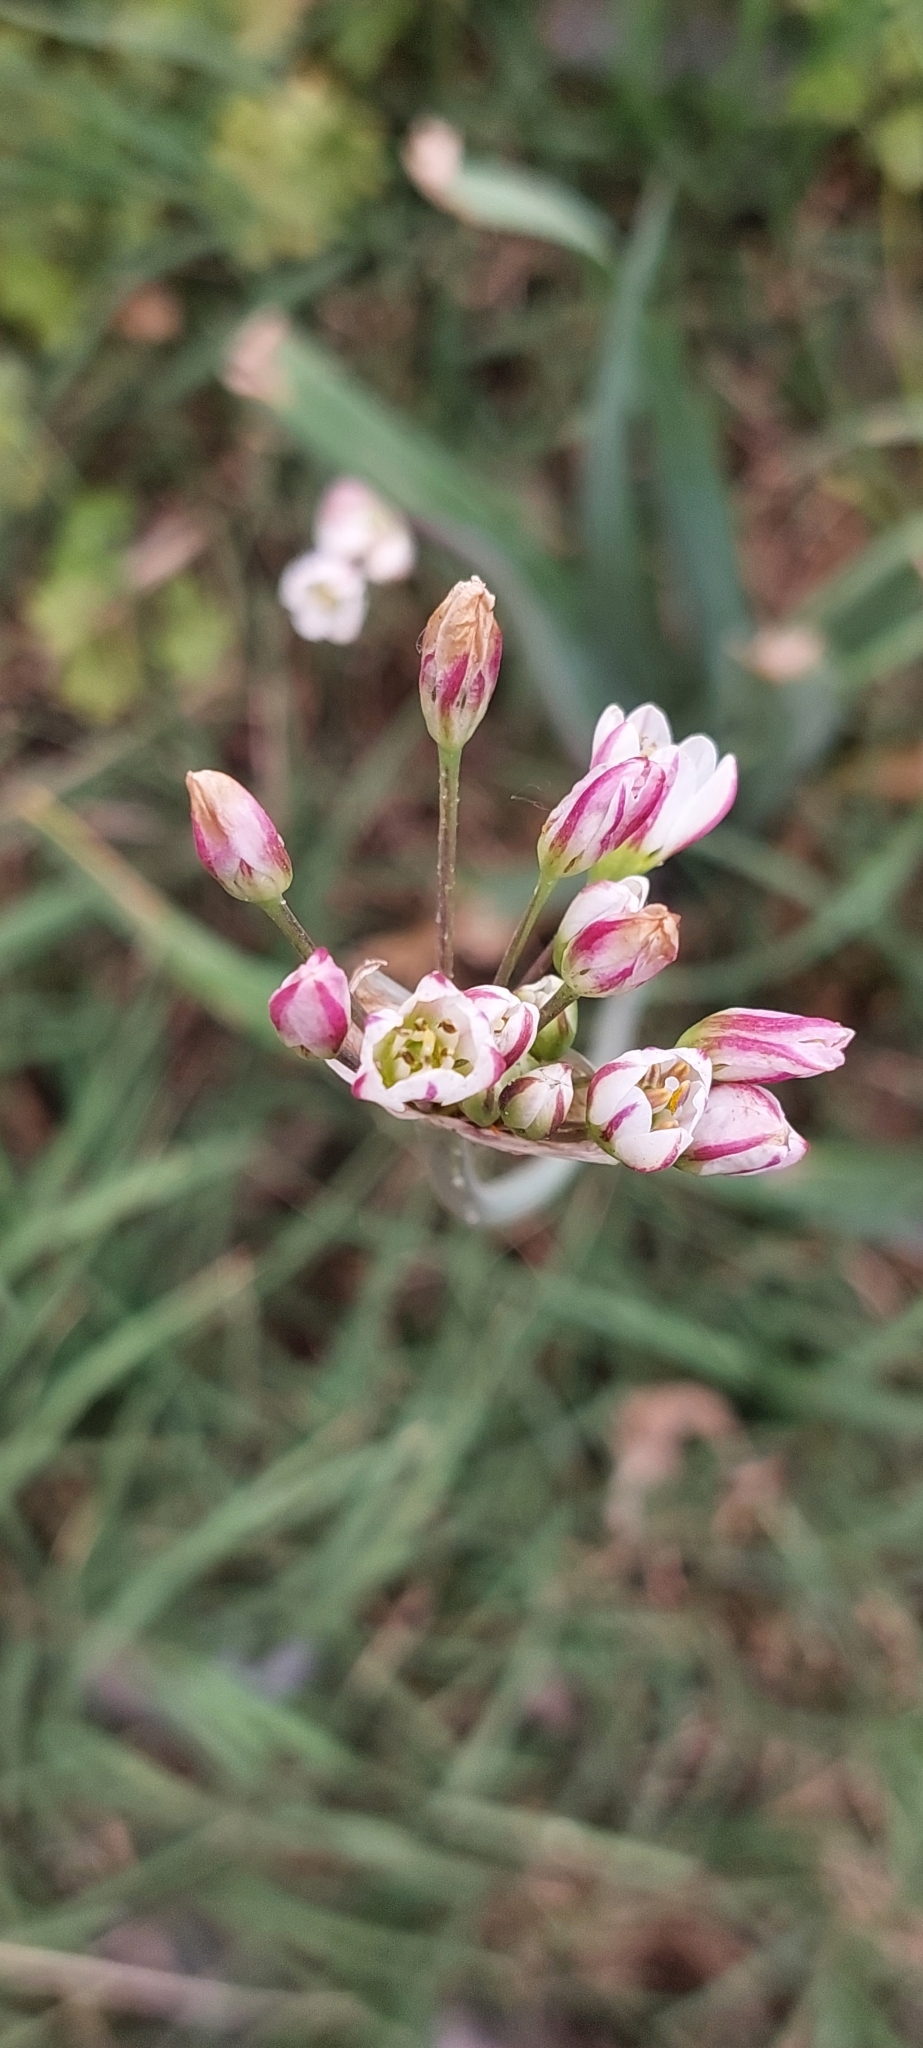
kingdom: Plantae
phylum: Tracheophyta
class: Liliopsida
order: Asparagales
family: Amaryllidaceae
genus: Nothoscordum
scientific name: Nothoscordum gracile
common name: Slender false garlic
